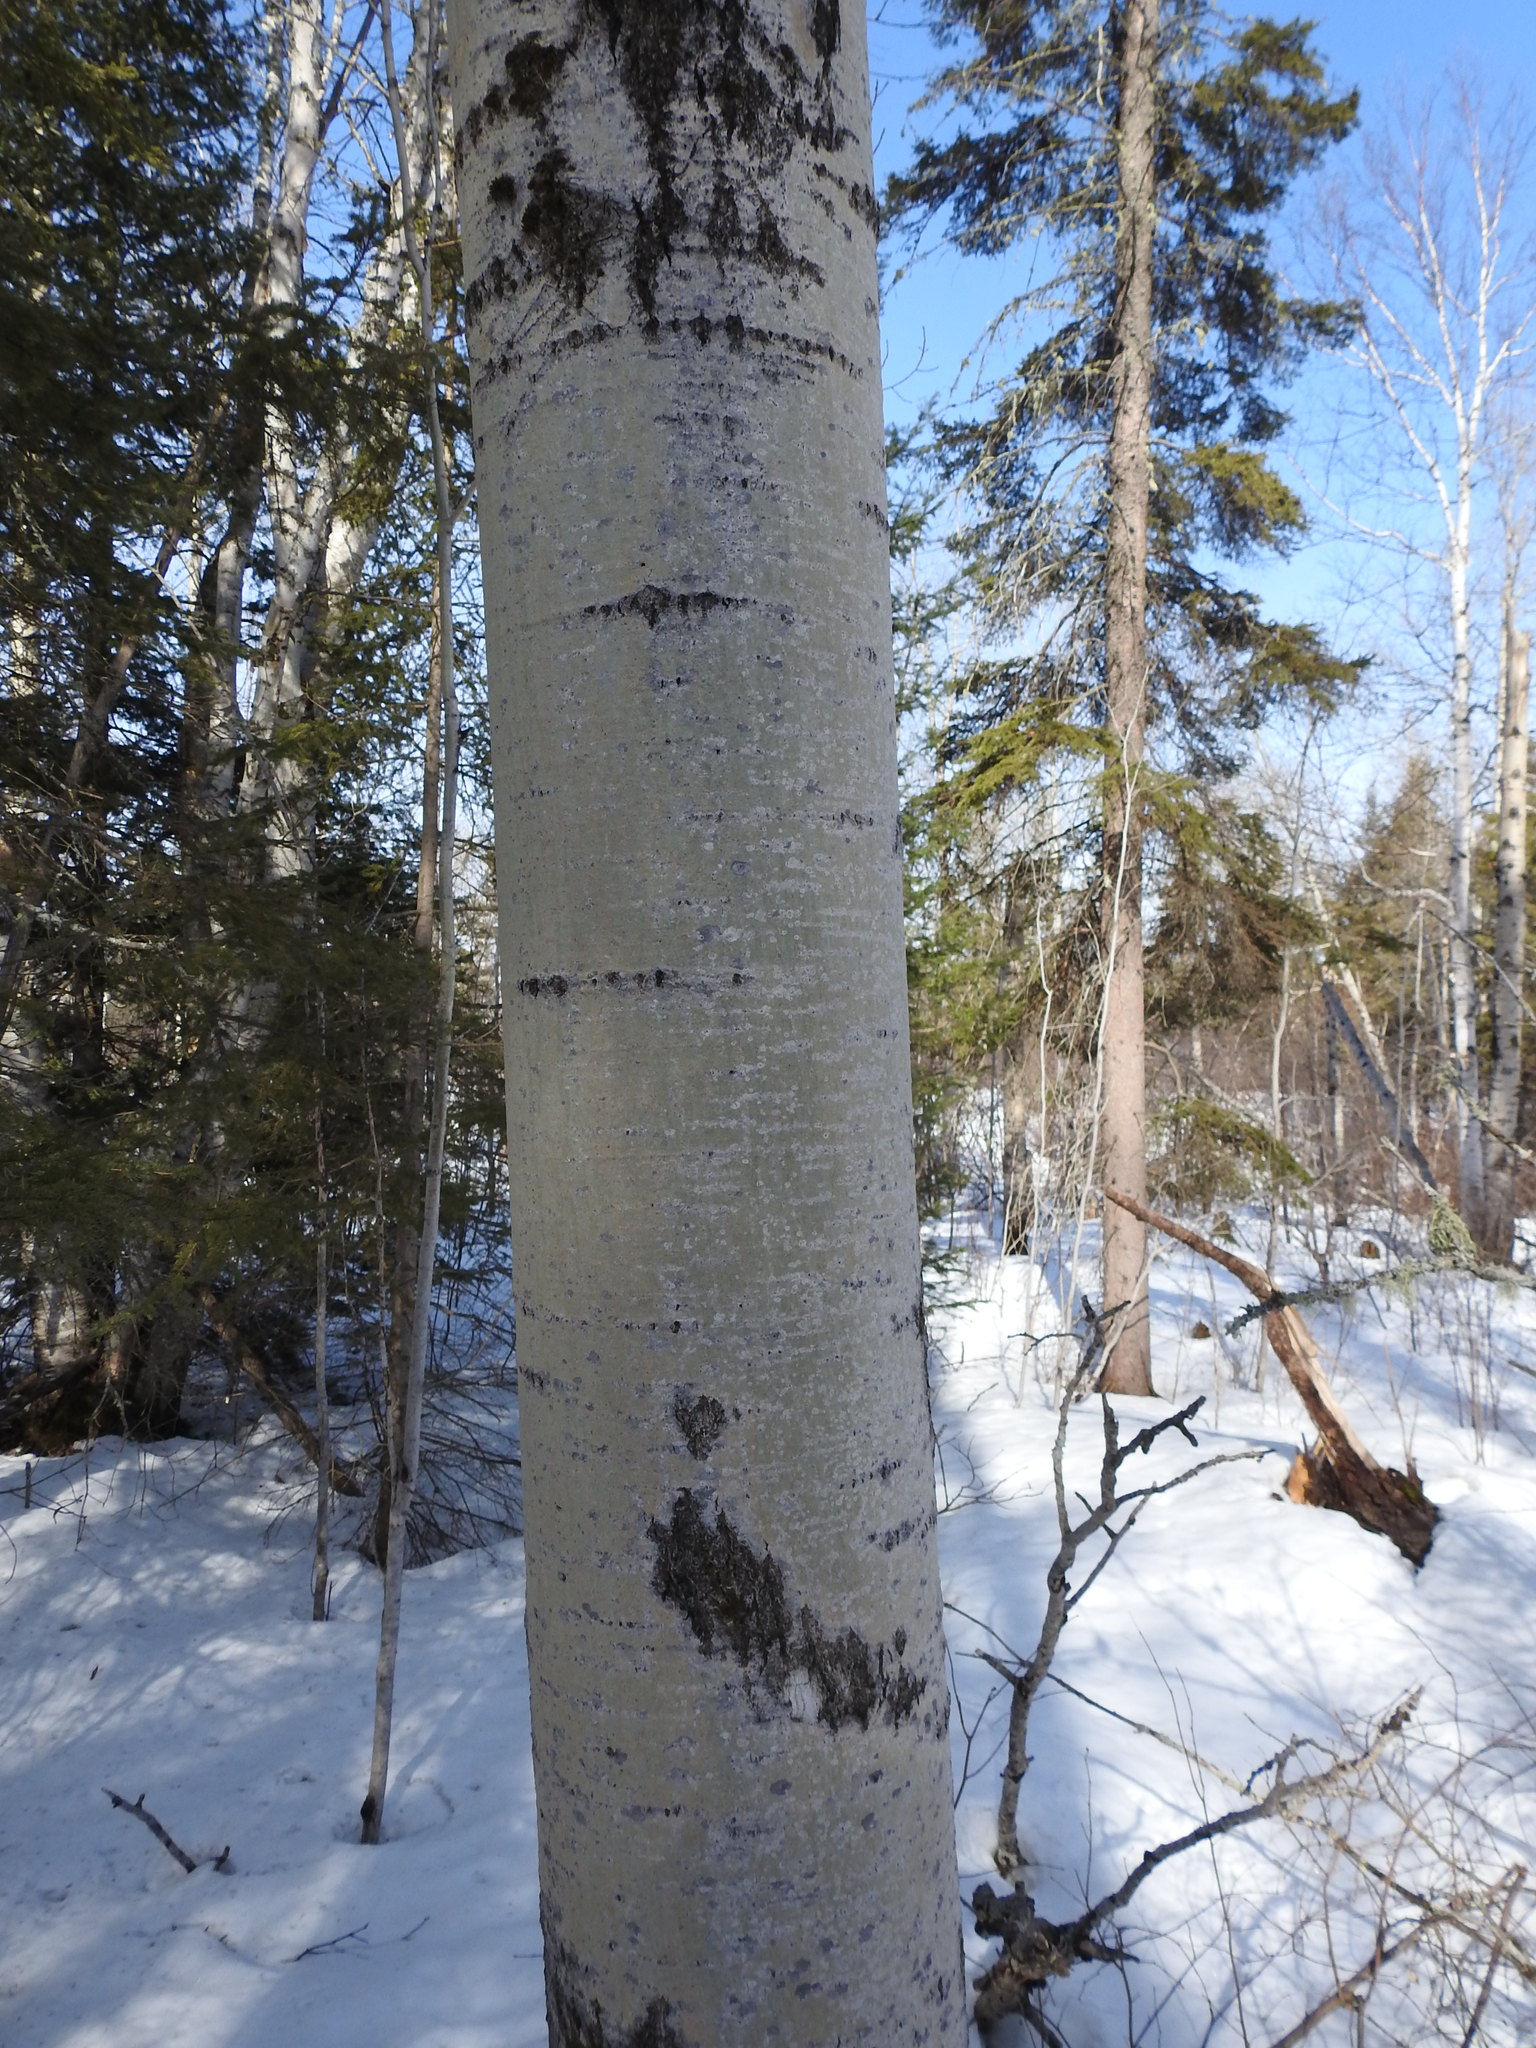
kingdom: Plantae
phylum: Tracheophyta
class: Magnoliopsida
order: Malpighiales
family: Salicaceae
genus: Populus
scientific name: Populus tremuloides
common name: Quaking aspen
